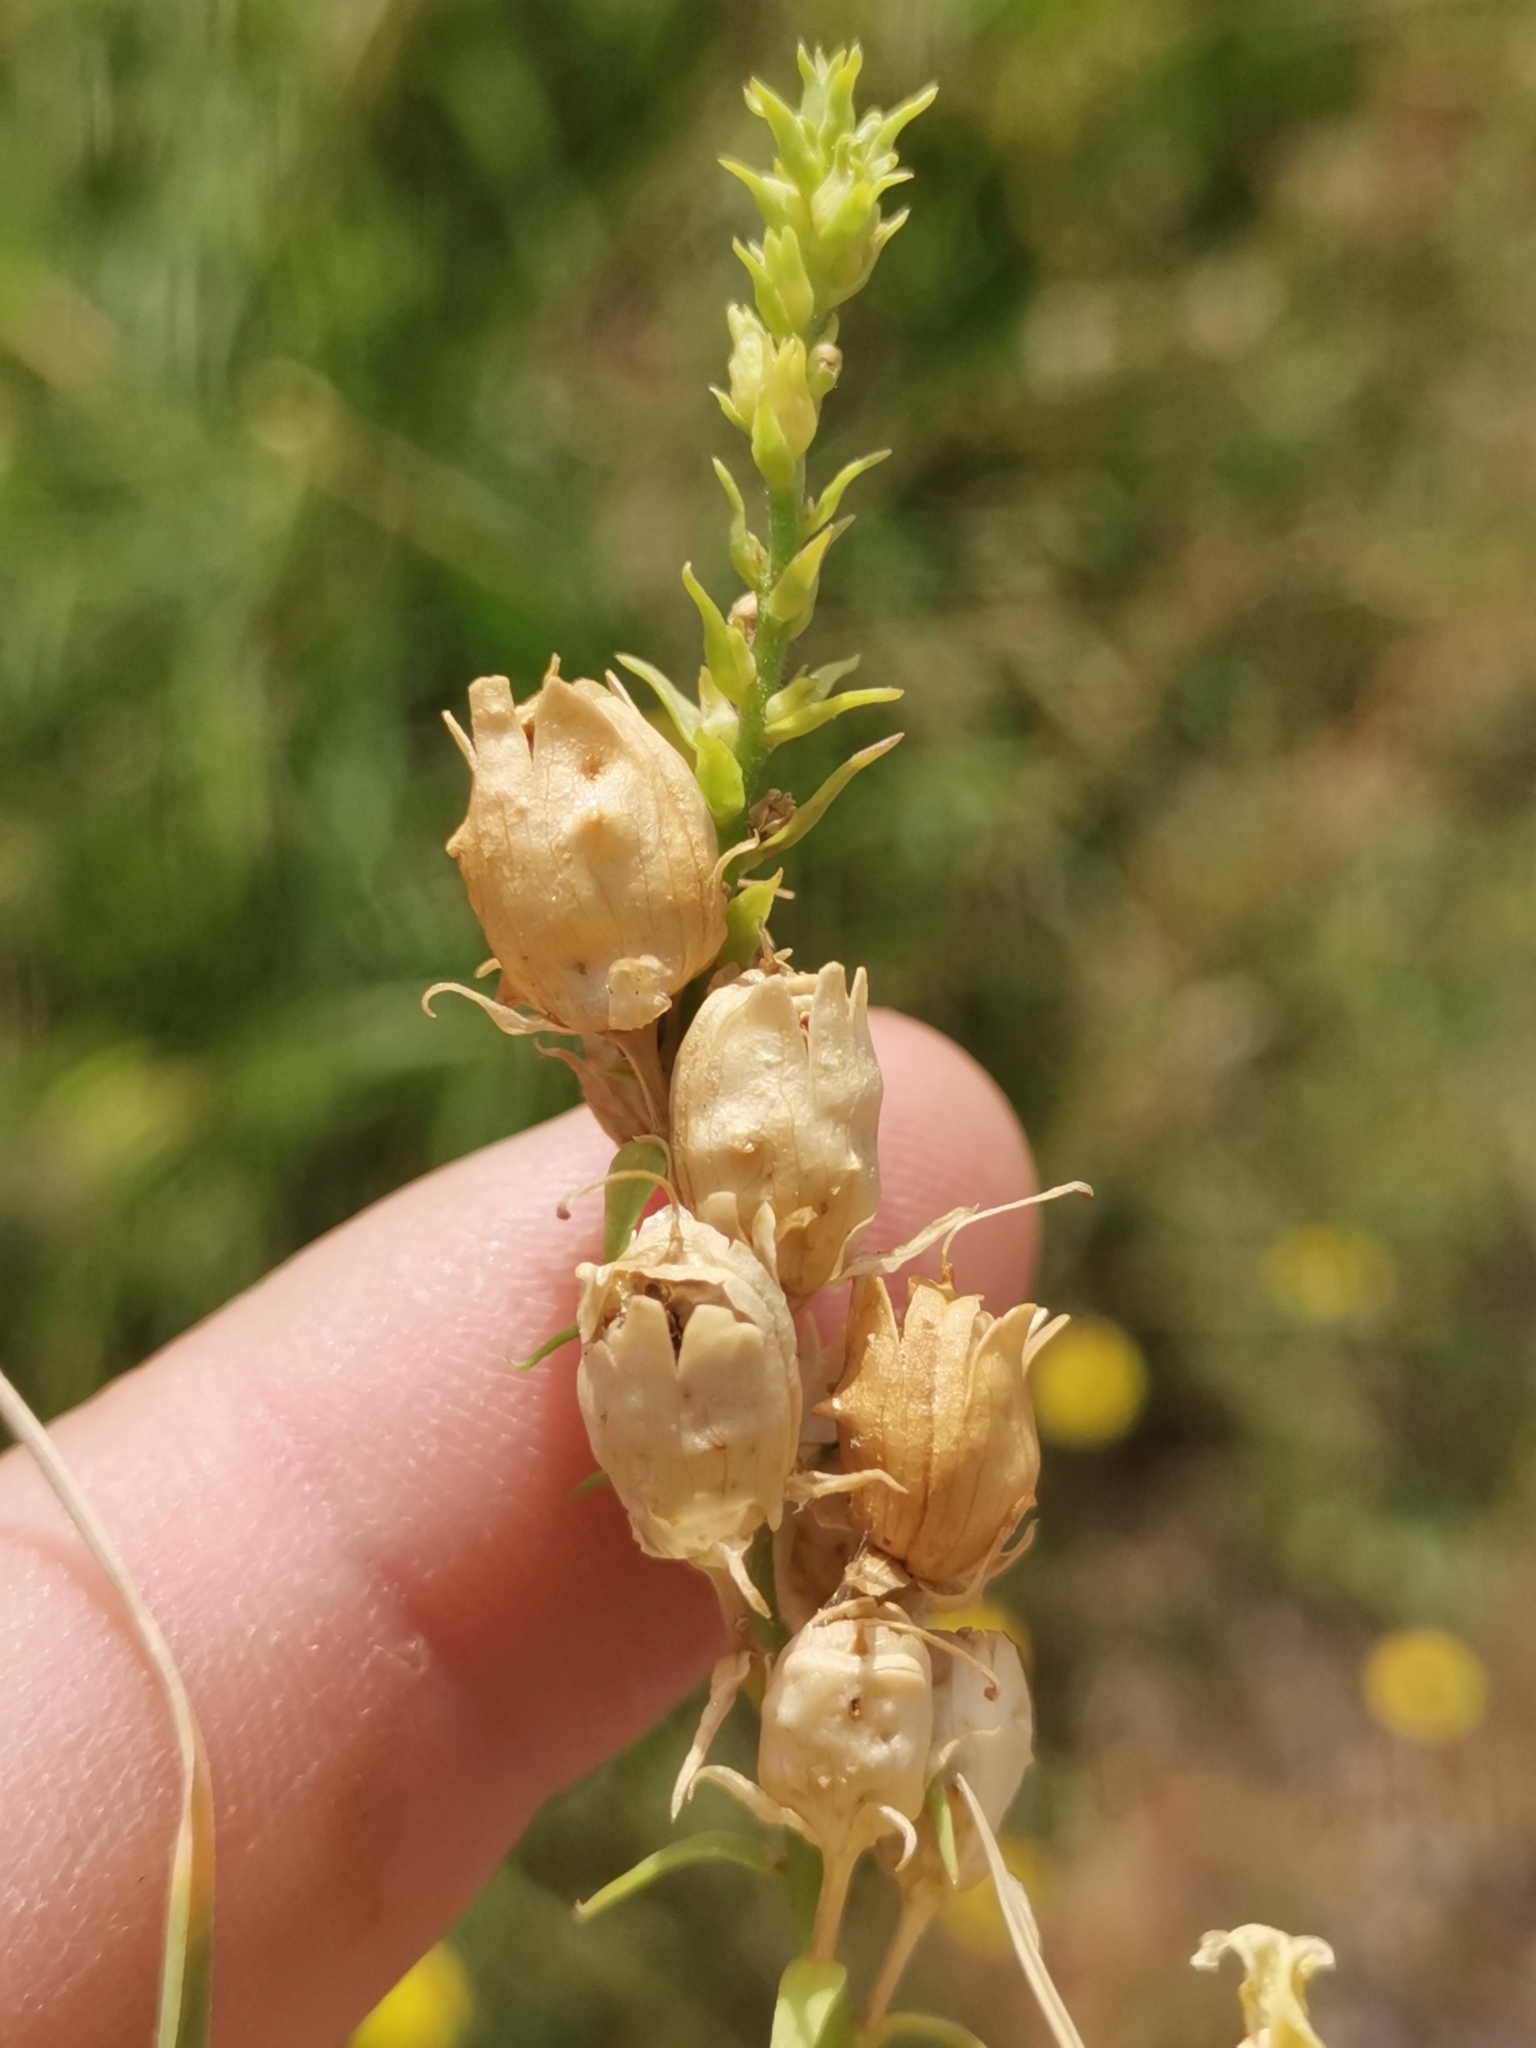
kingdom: Plantae
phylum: Tracheophyta
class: Magnoliopsida
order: Lamiales
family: Plantaginaceae
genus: Linaria
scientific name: Linaria angustissima
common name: Italian toadflax
